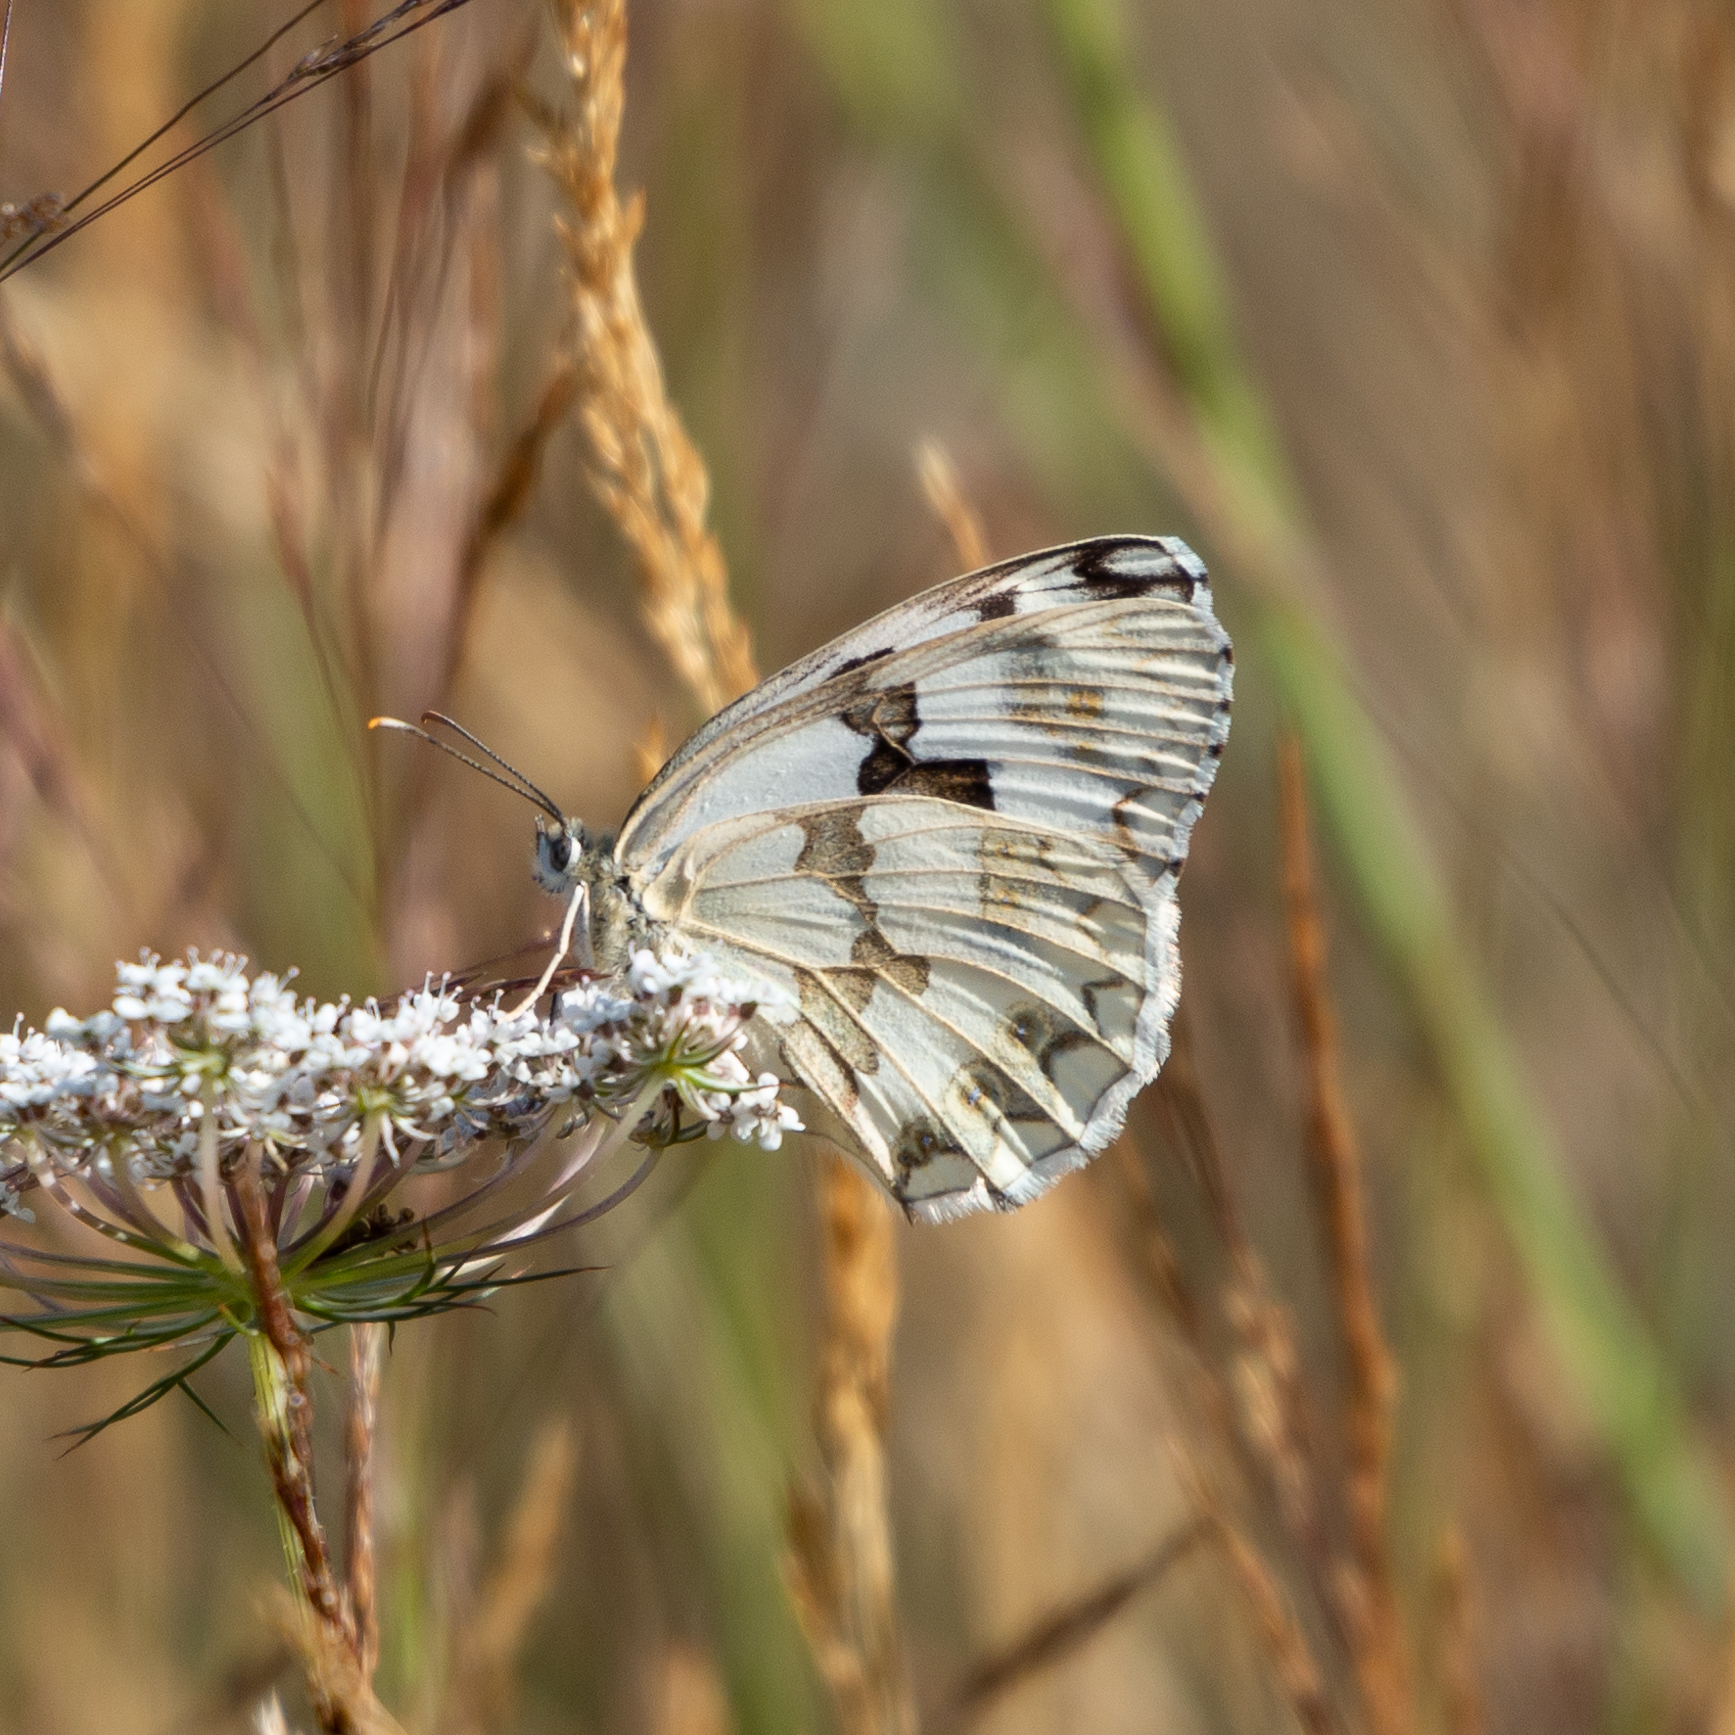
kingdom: Animalia
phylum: Arthropoda
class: Insecta
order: Lepidoptera
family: Nymphalidae
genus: Melanargia
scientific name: Melanargia lachesis
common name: Iberian marbled white
